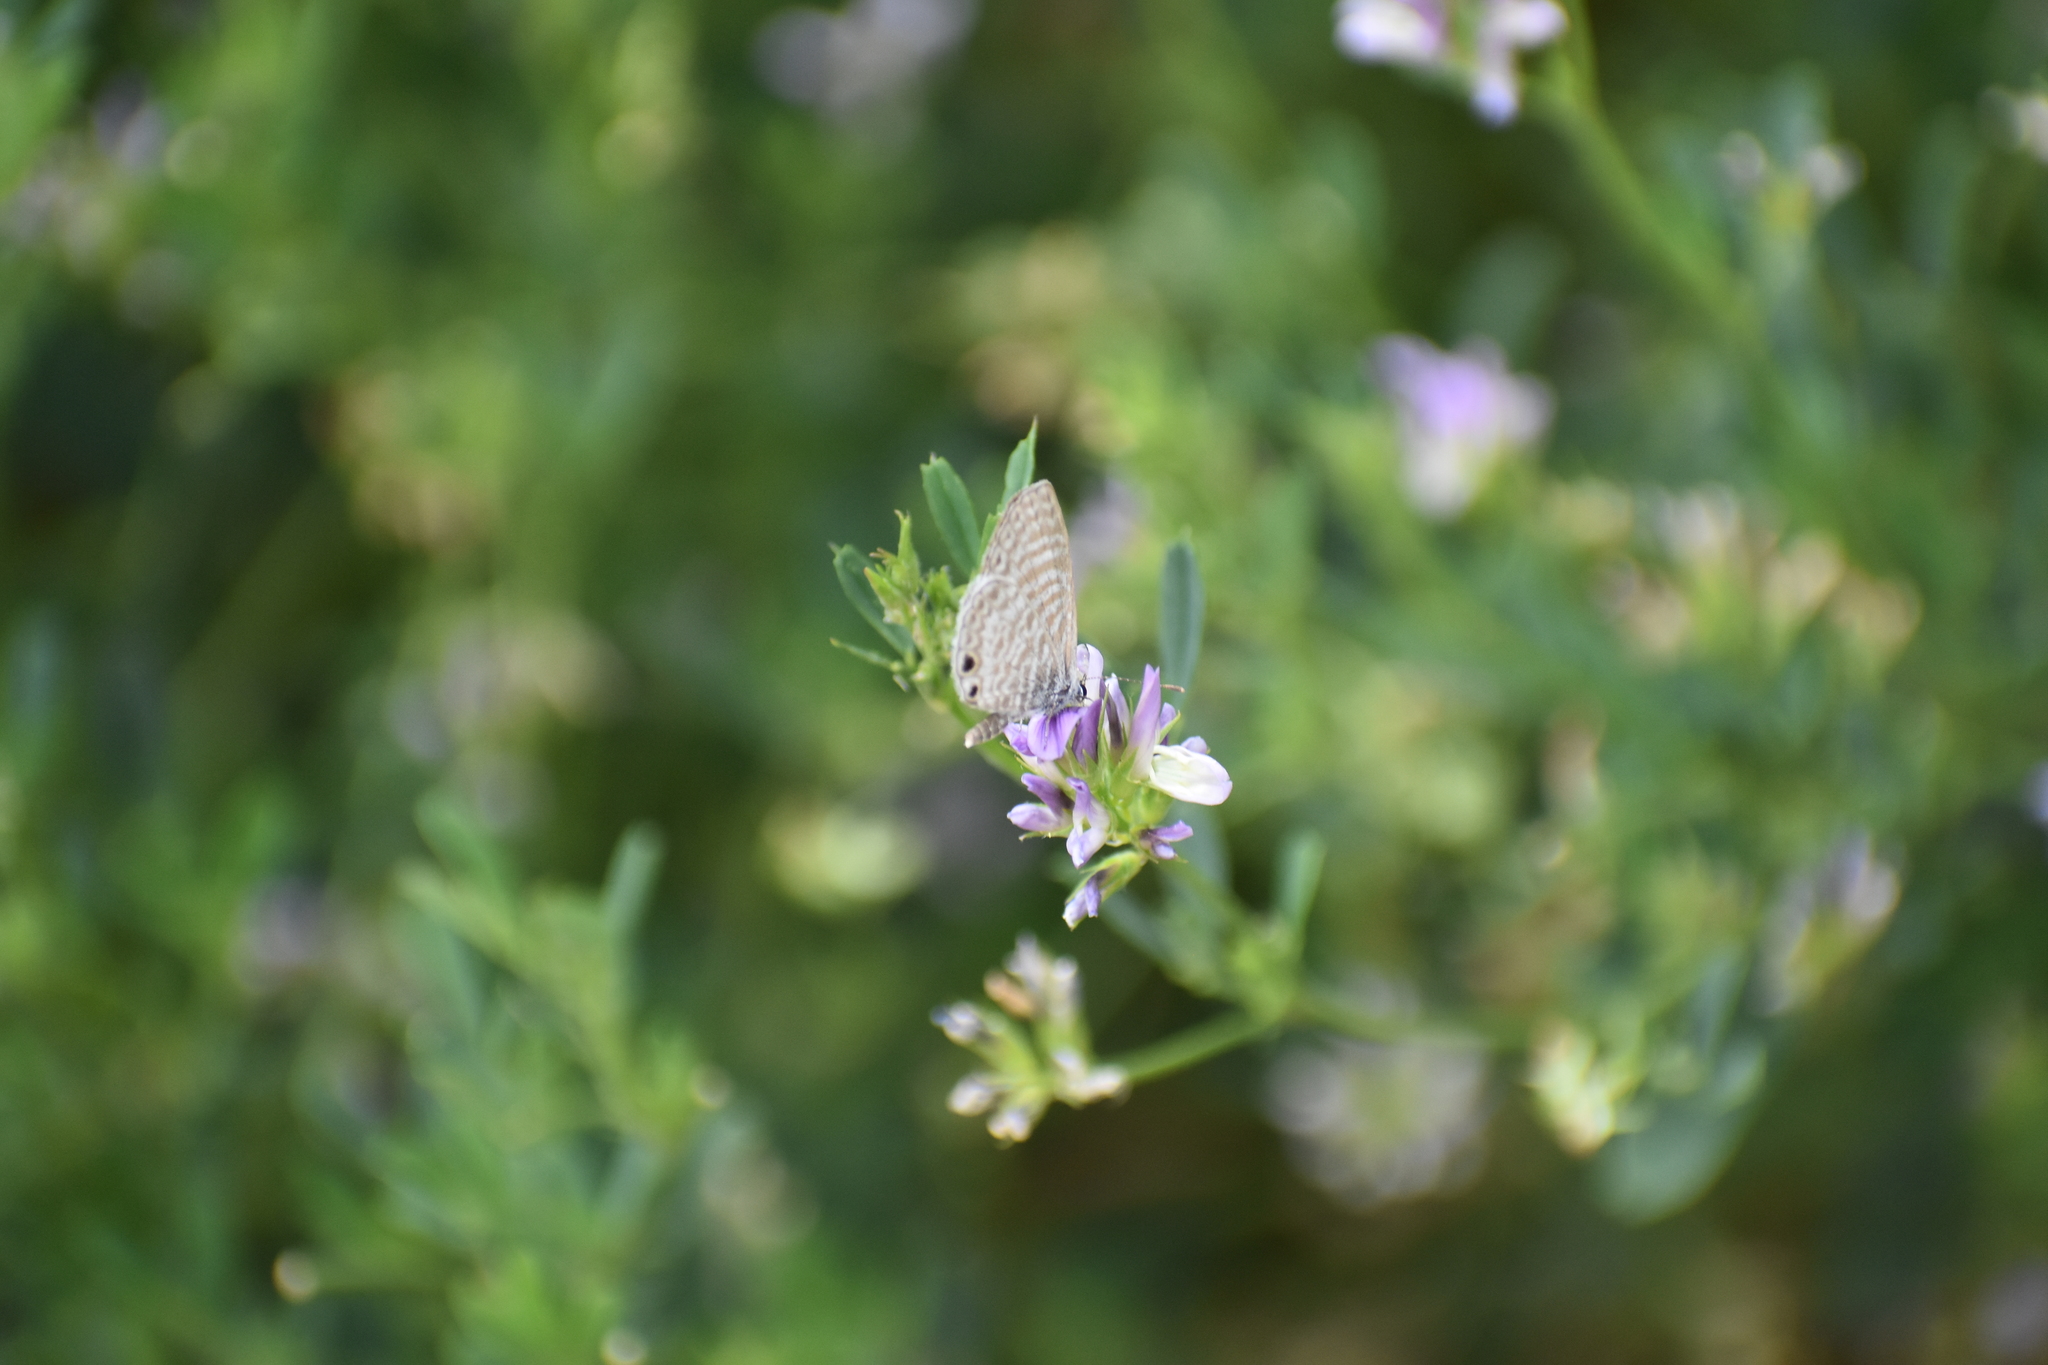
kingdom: Animalia
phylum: Arthropoda
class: Insecta
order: Lepidoptera
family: Lycaenidae
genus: Leptotes
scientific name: Leptotes marina
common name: Marine blue
